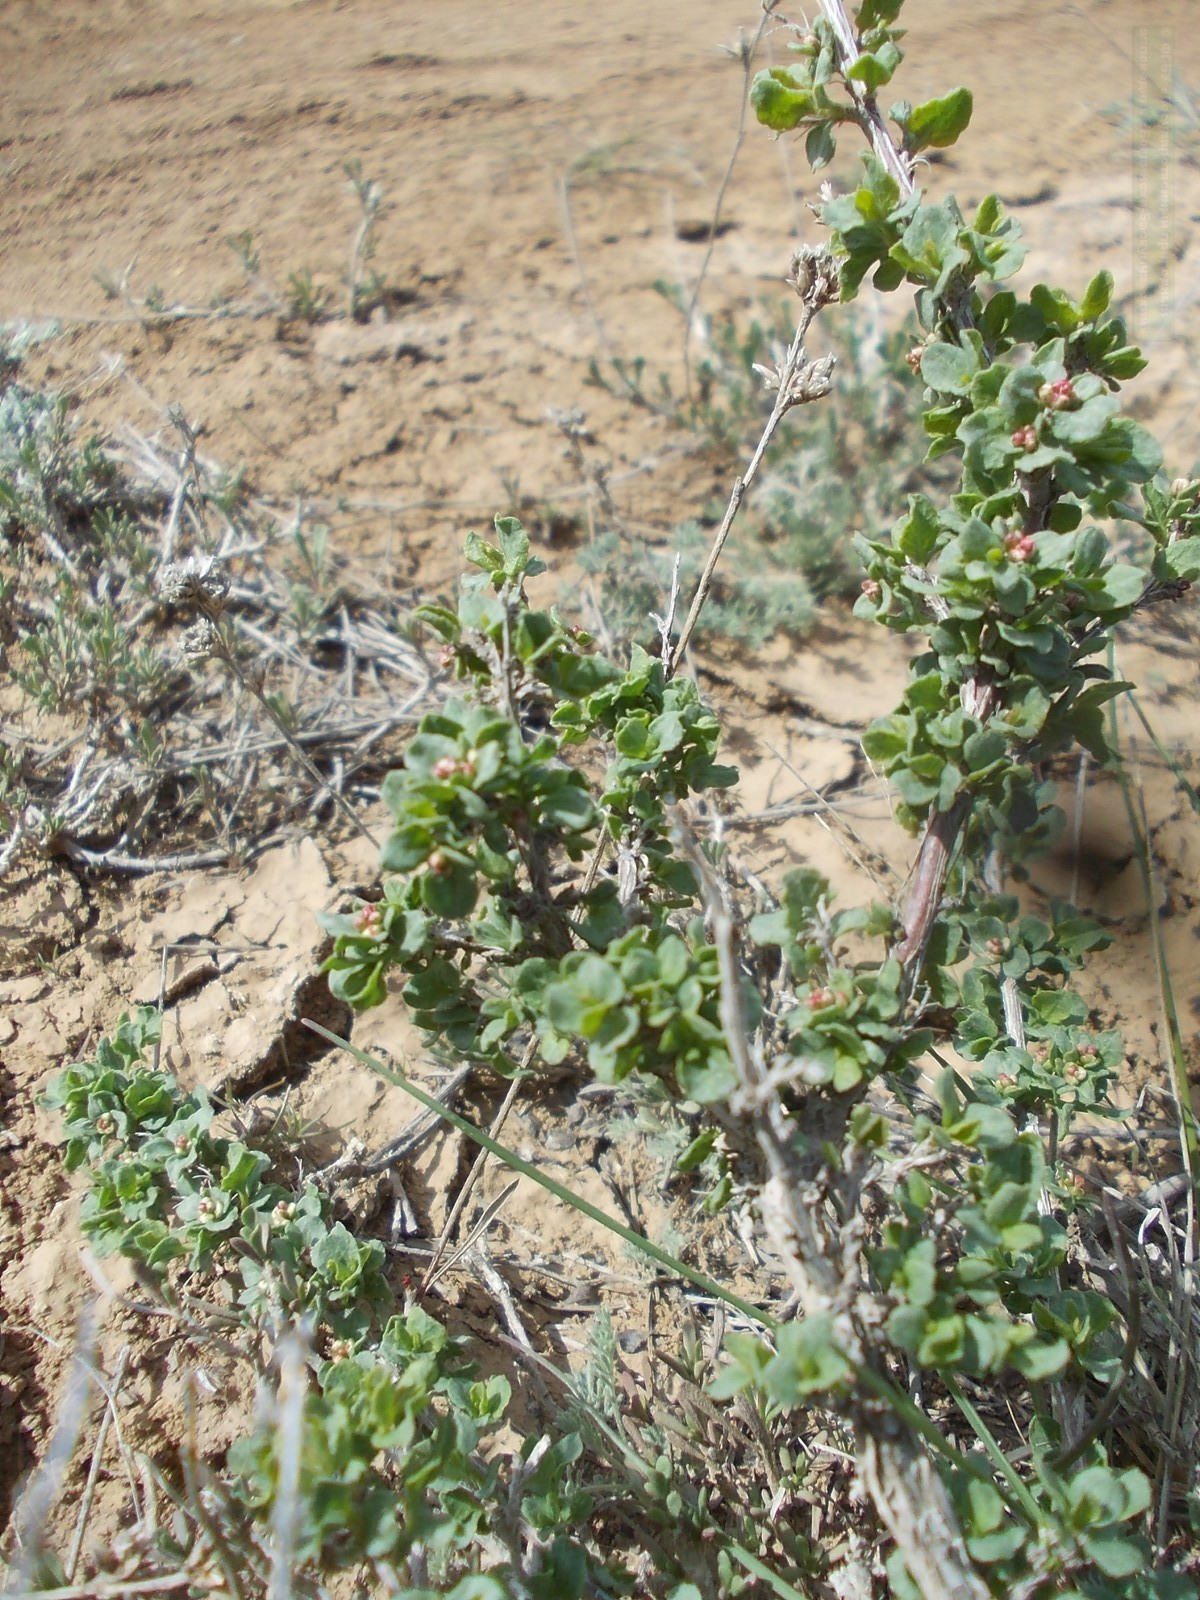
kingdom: Plantae
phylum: Tracheophyta
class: Magnoliopsida
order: Caryophyllales
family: Polygonaceae
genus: Atraphaxis
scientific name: Atraphaxis replicata
